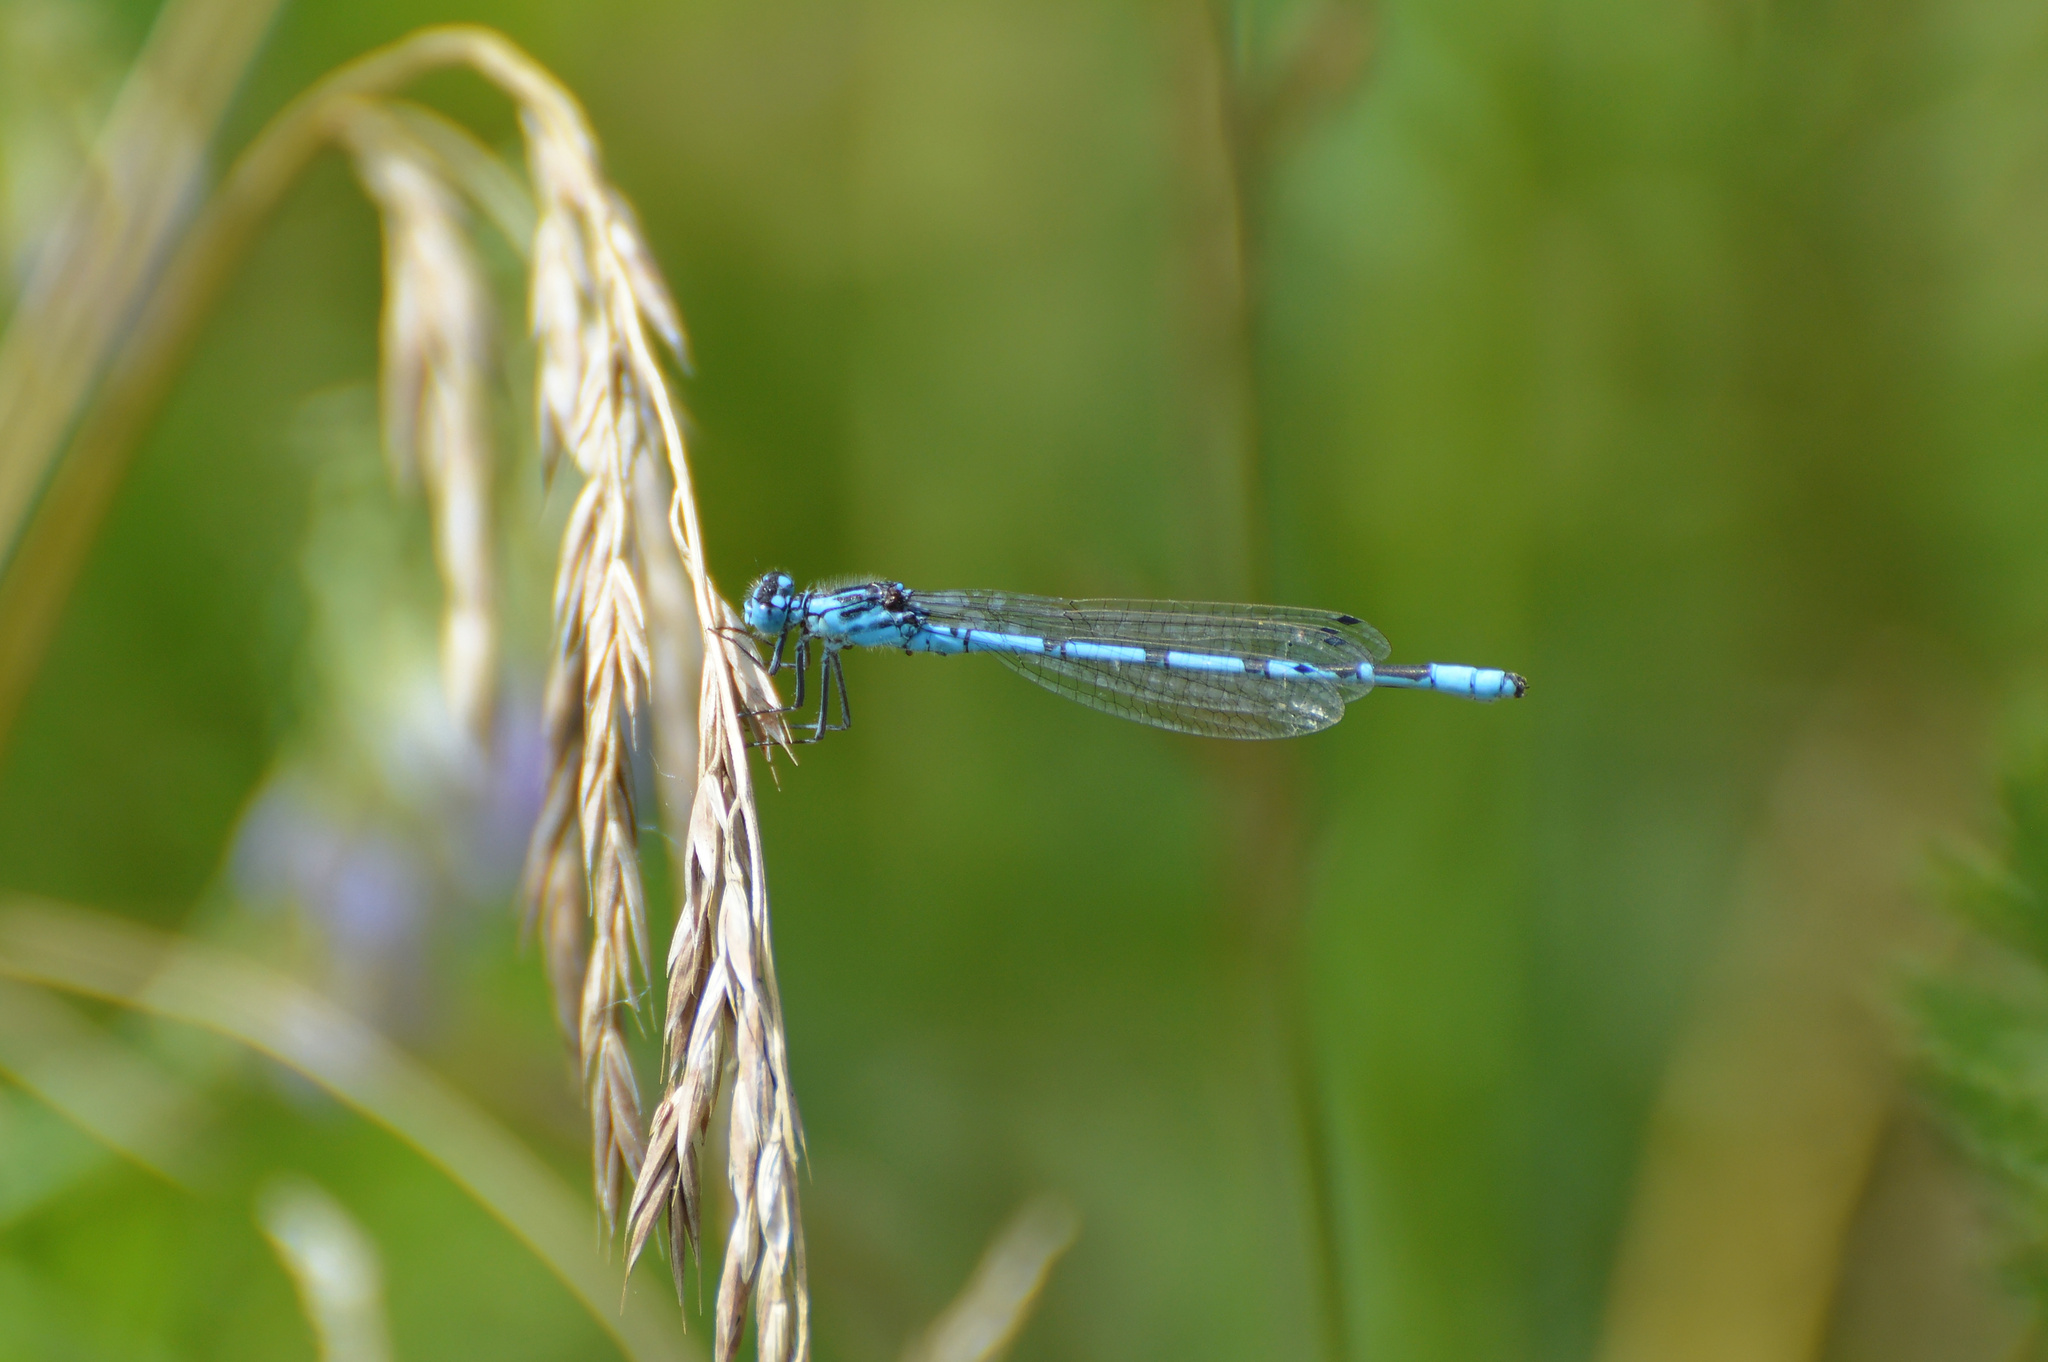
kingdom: Animalia
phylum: Arthropoda
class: Insecta
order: Odonata
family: Coenagrionidae
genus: Enallagma
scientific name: Enallagma cyathigerum
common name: Common blue damselfly
